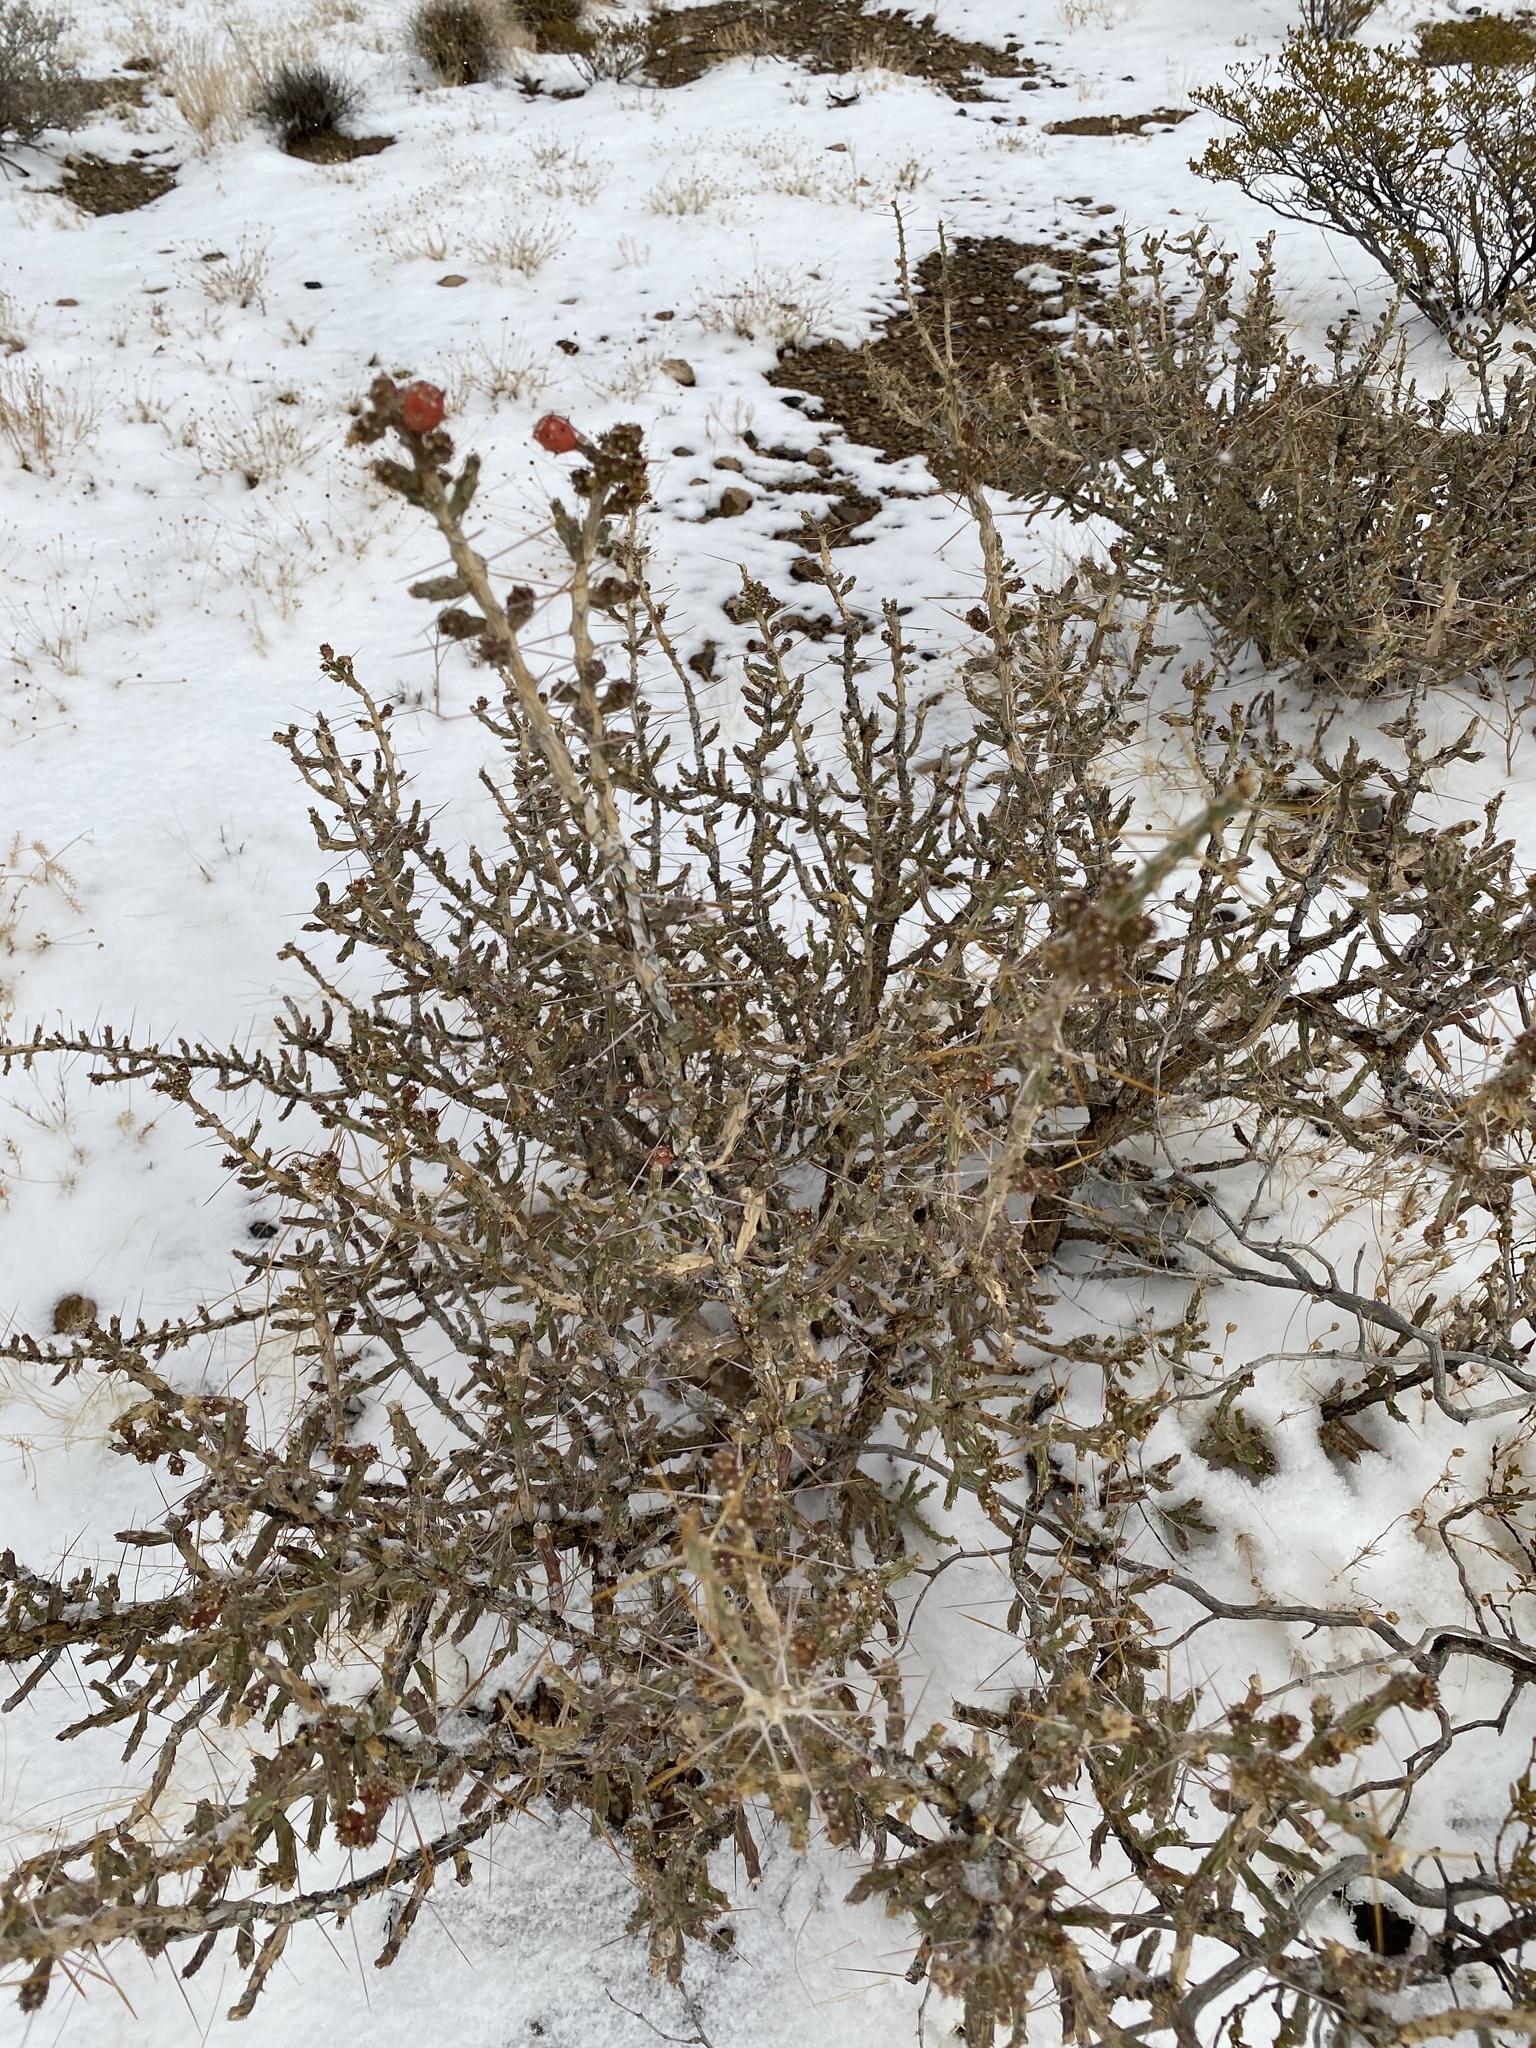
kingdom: Plantae
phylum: Tracheophyta
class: Magnoliopsida
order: Caryophyllales
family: Cactaceae
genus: Cylindropuntia
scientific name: Cylindropuntia leptocaulis
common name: Christmas cactus
